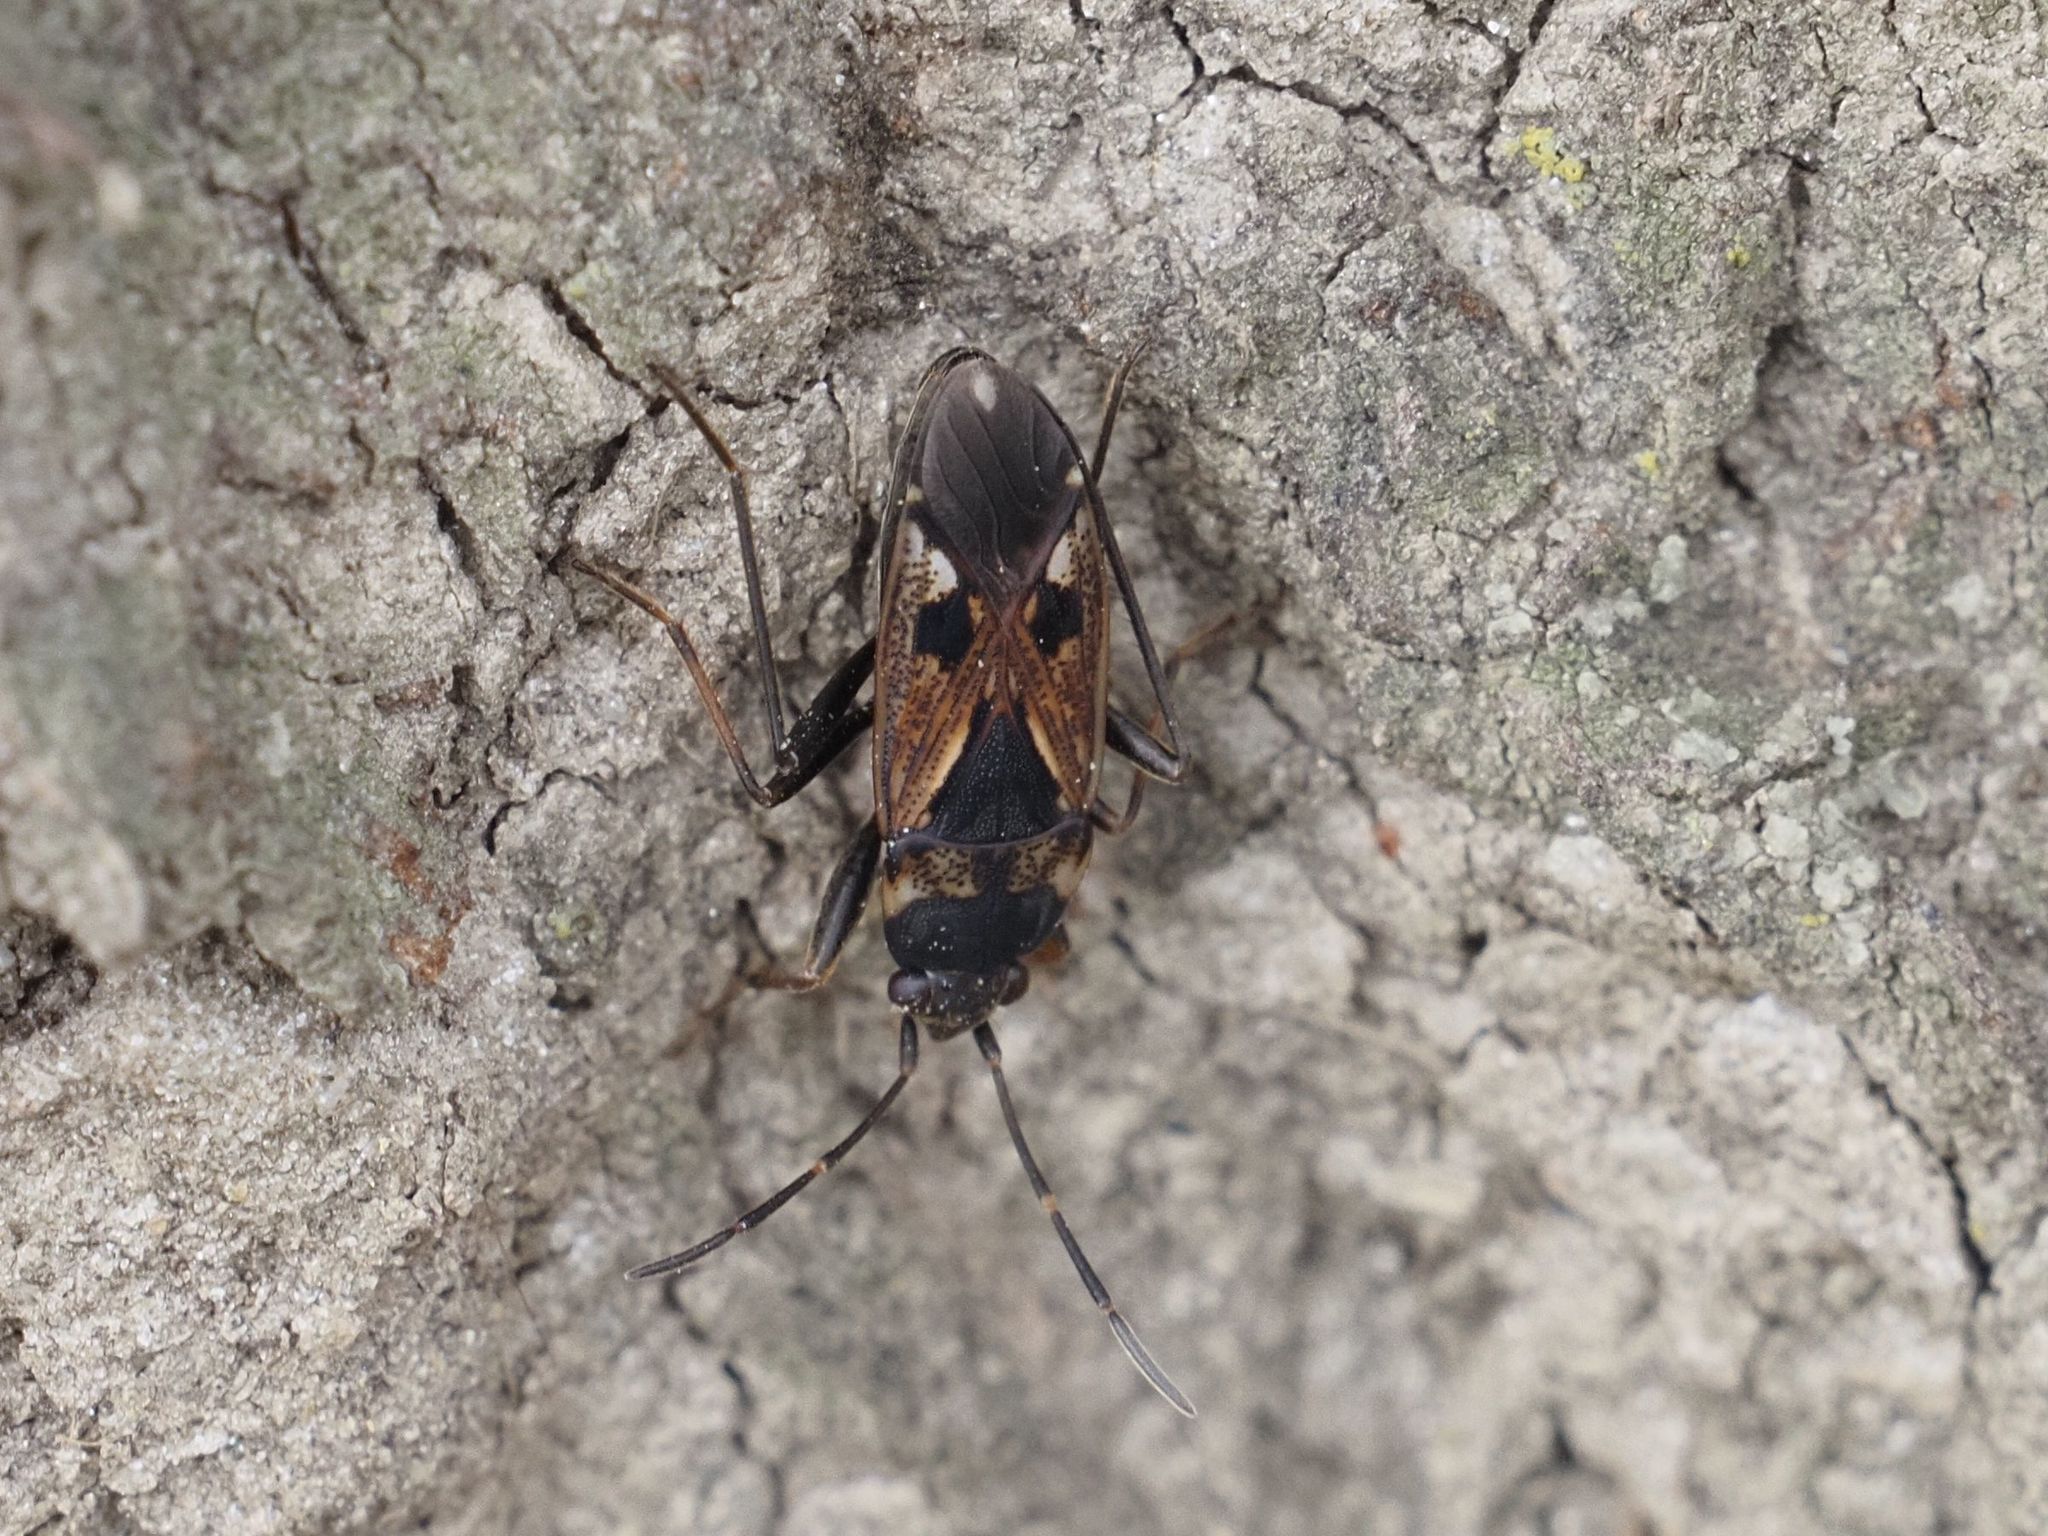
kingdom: Animalia
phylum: Arthropoda
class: Insecta
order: Hemiptera
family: Rhyparochromidae
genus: Rhyparochromus
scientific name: Rhyparochromus vulgaris
